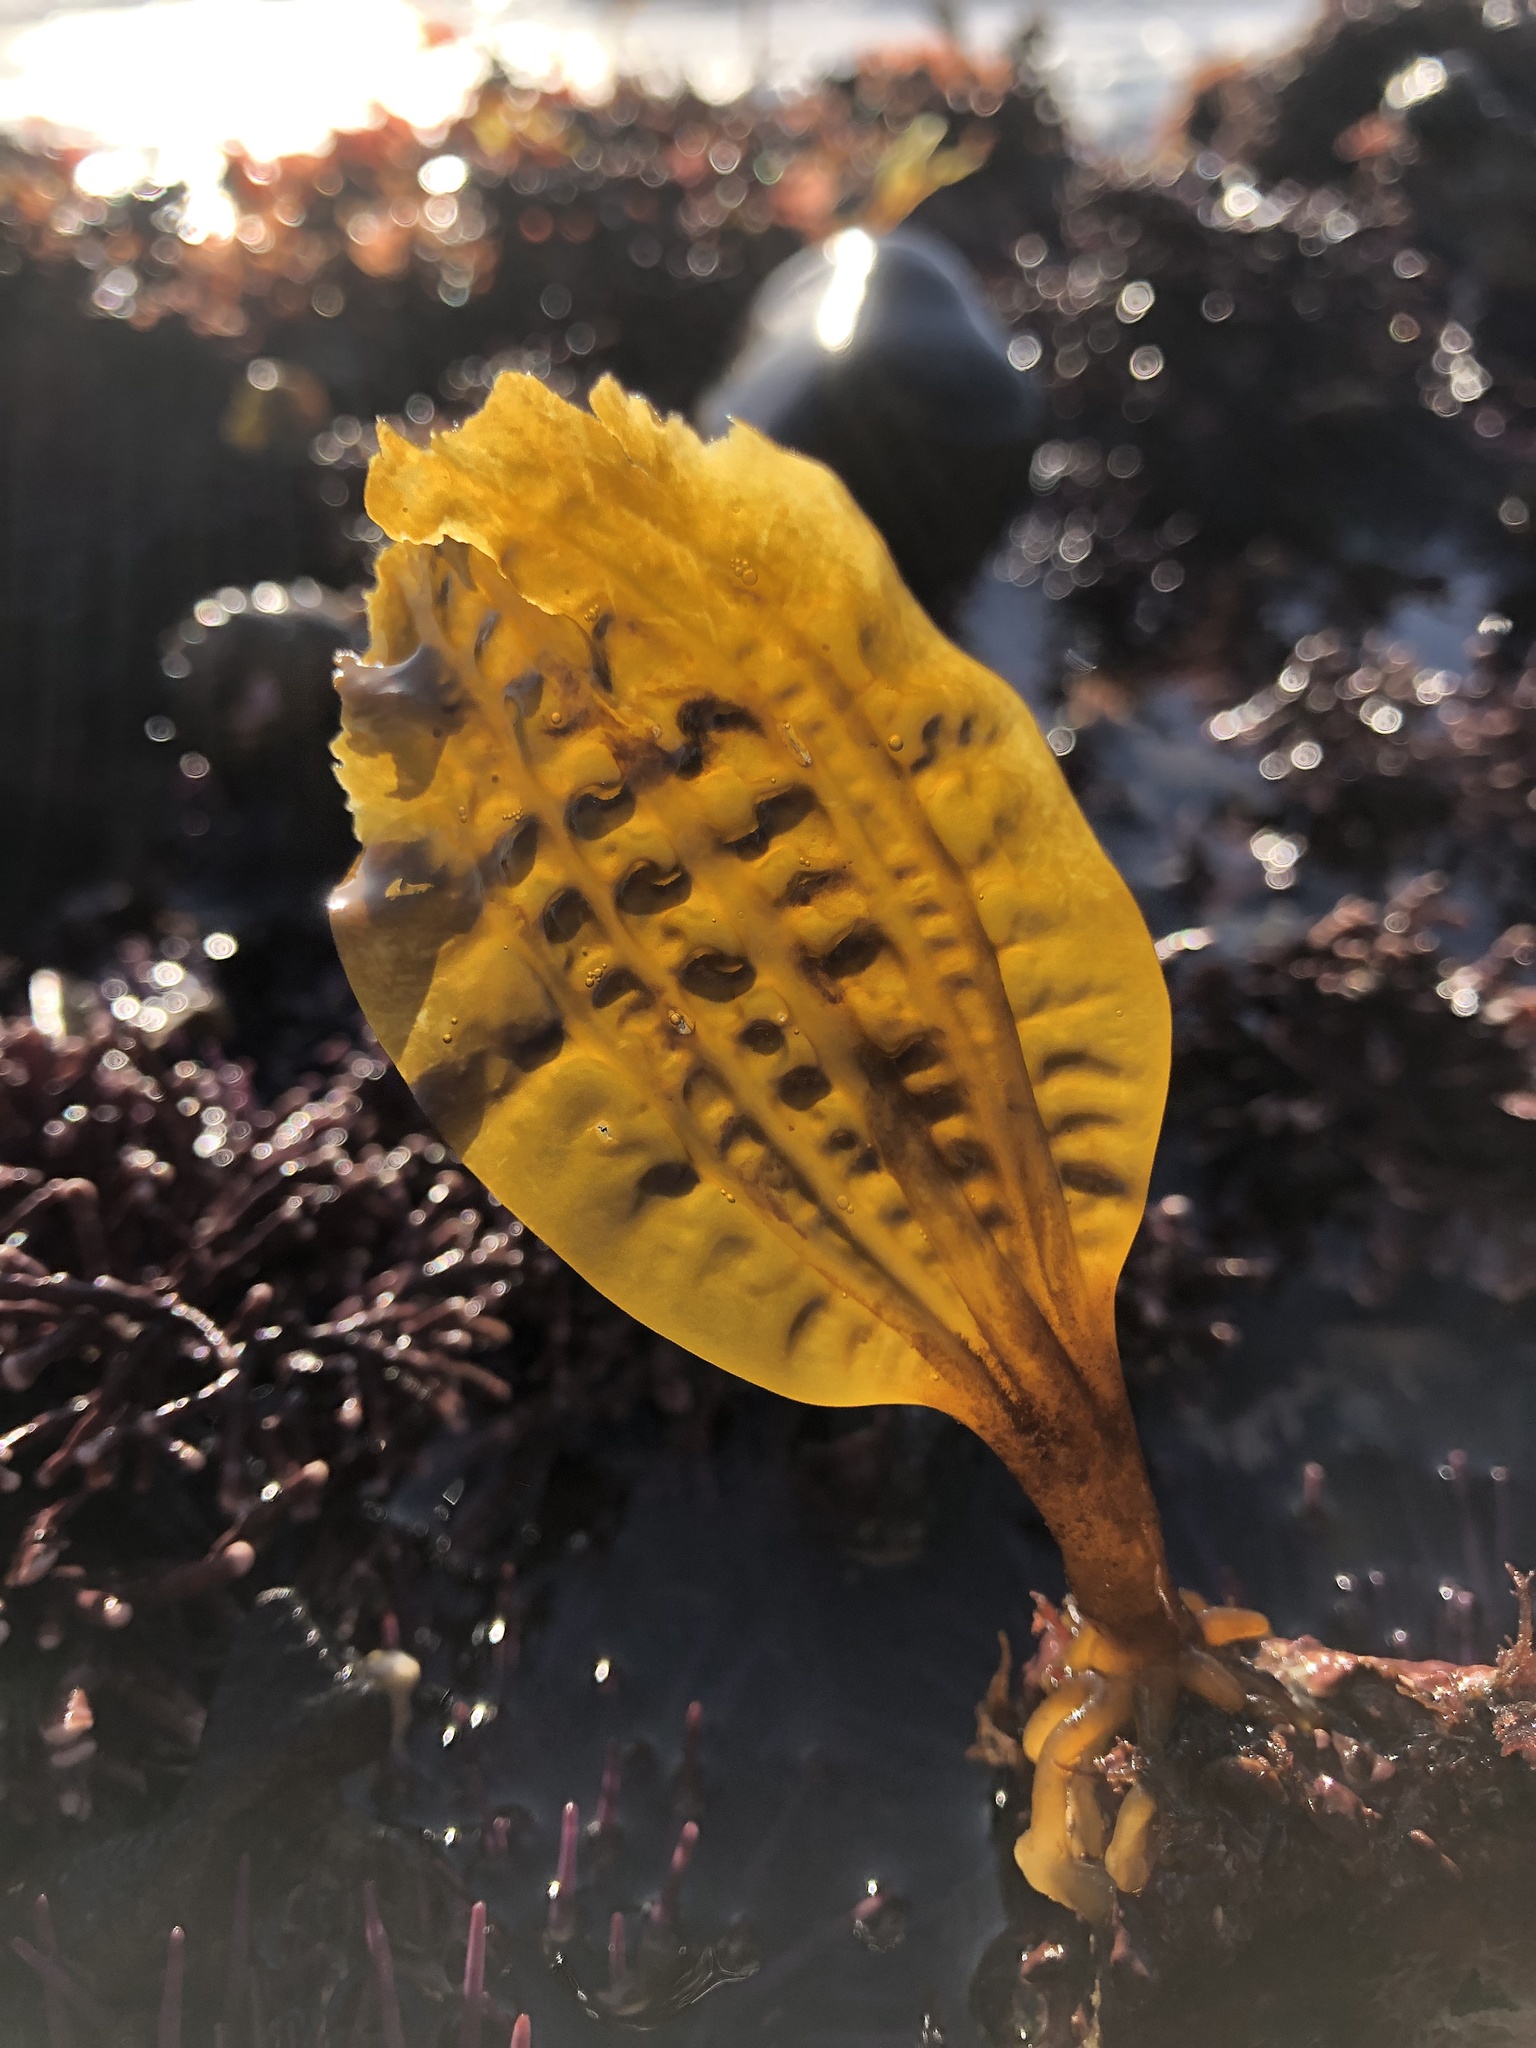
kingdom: Chromista
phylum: Ochrophyta
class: Phaeophyceae
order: Laminariales
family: Costariaceae
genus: Costaria
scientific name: Costaria costata
